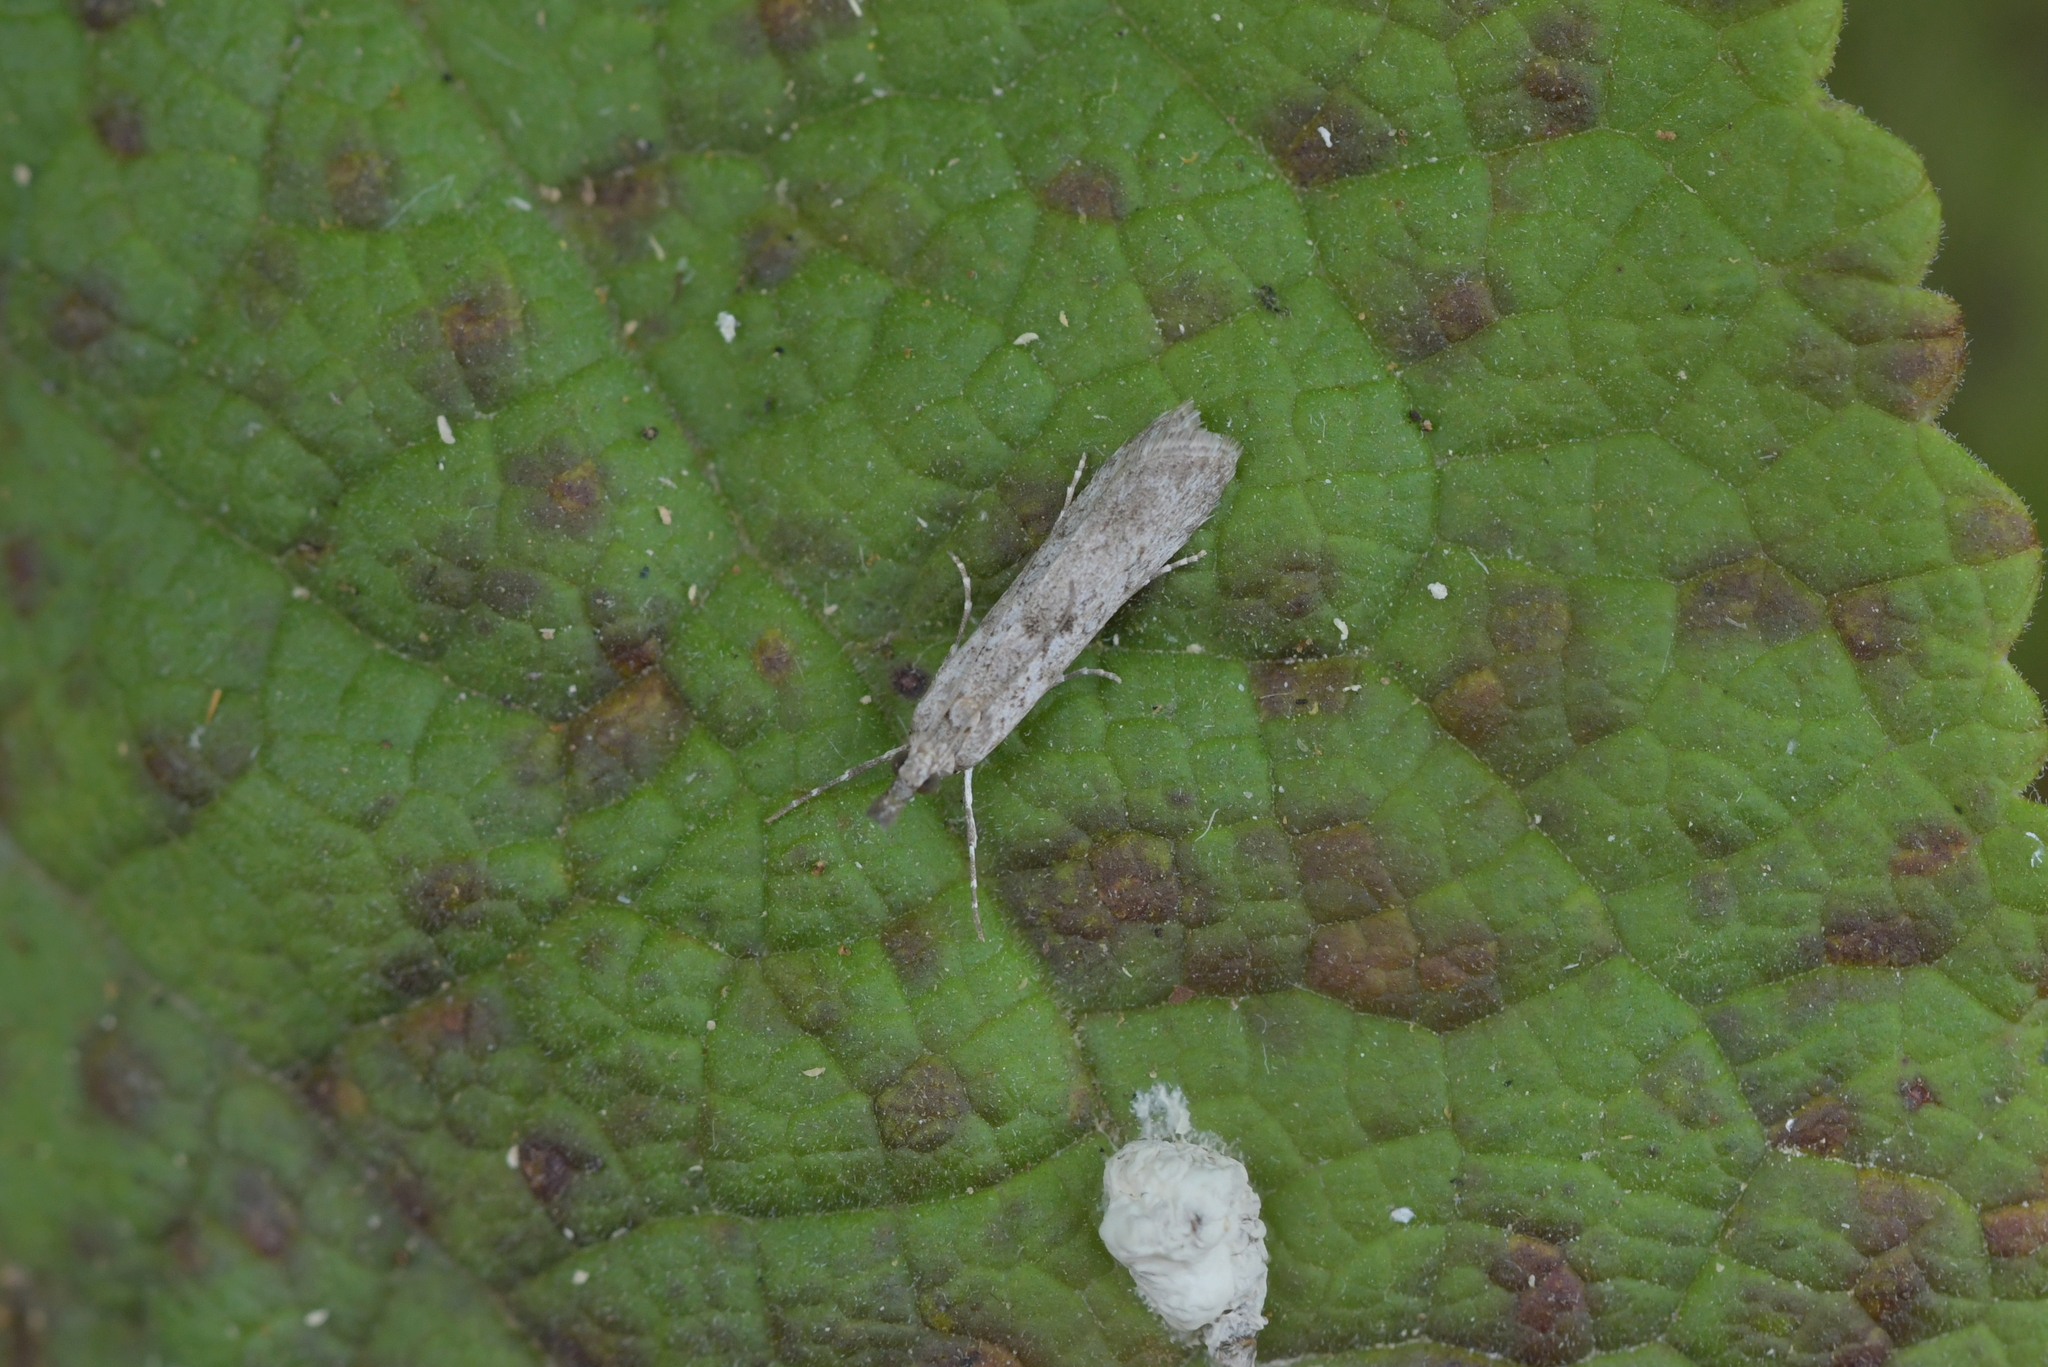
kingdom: Animalia
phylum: Arthropoda
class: Insecta
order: Lepidoptera
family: Crambidae
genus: Eudonia
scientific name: Eudonia leptalea
